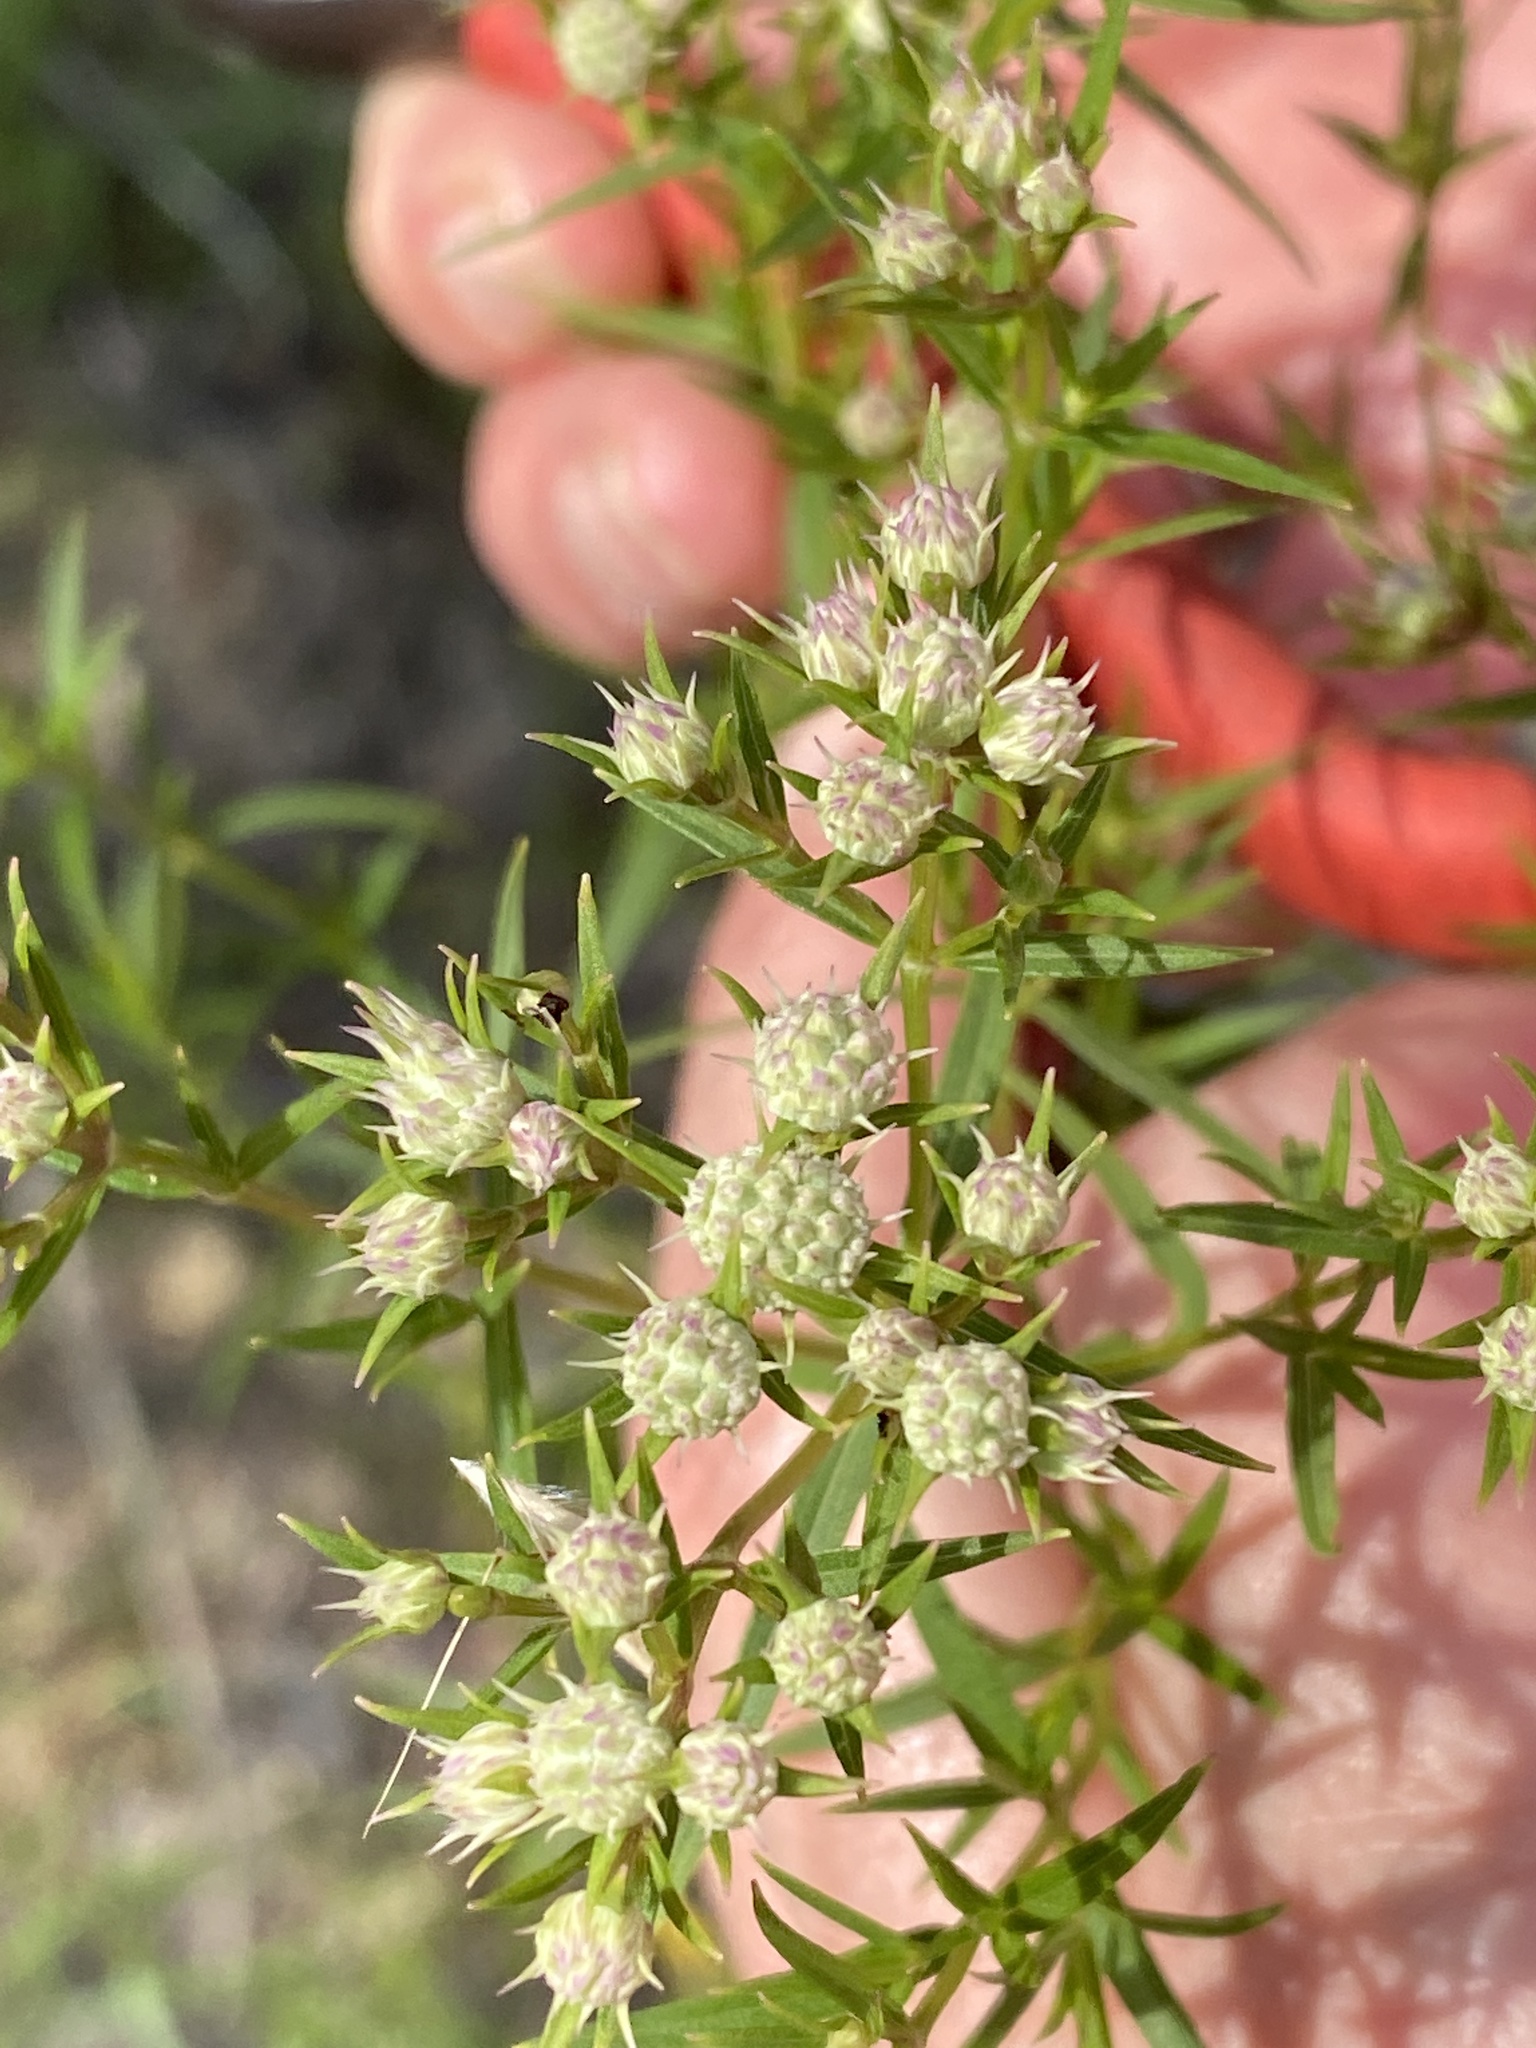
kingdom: Plantae
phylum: Tracheophyta
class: Magnoliopsida
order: Lamiales
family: Lamiaceae
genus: Pycnanthemum
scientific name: Pycnanthemum tenuifolium
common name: Narrow-leaf mountain-mint
